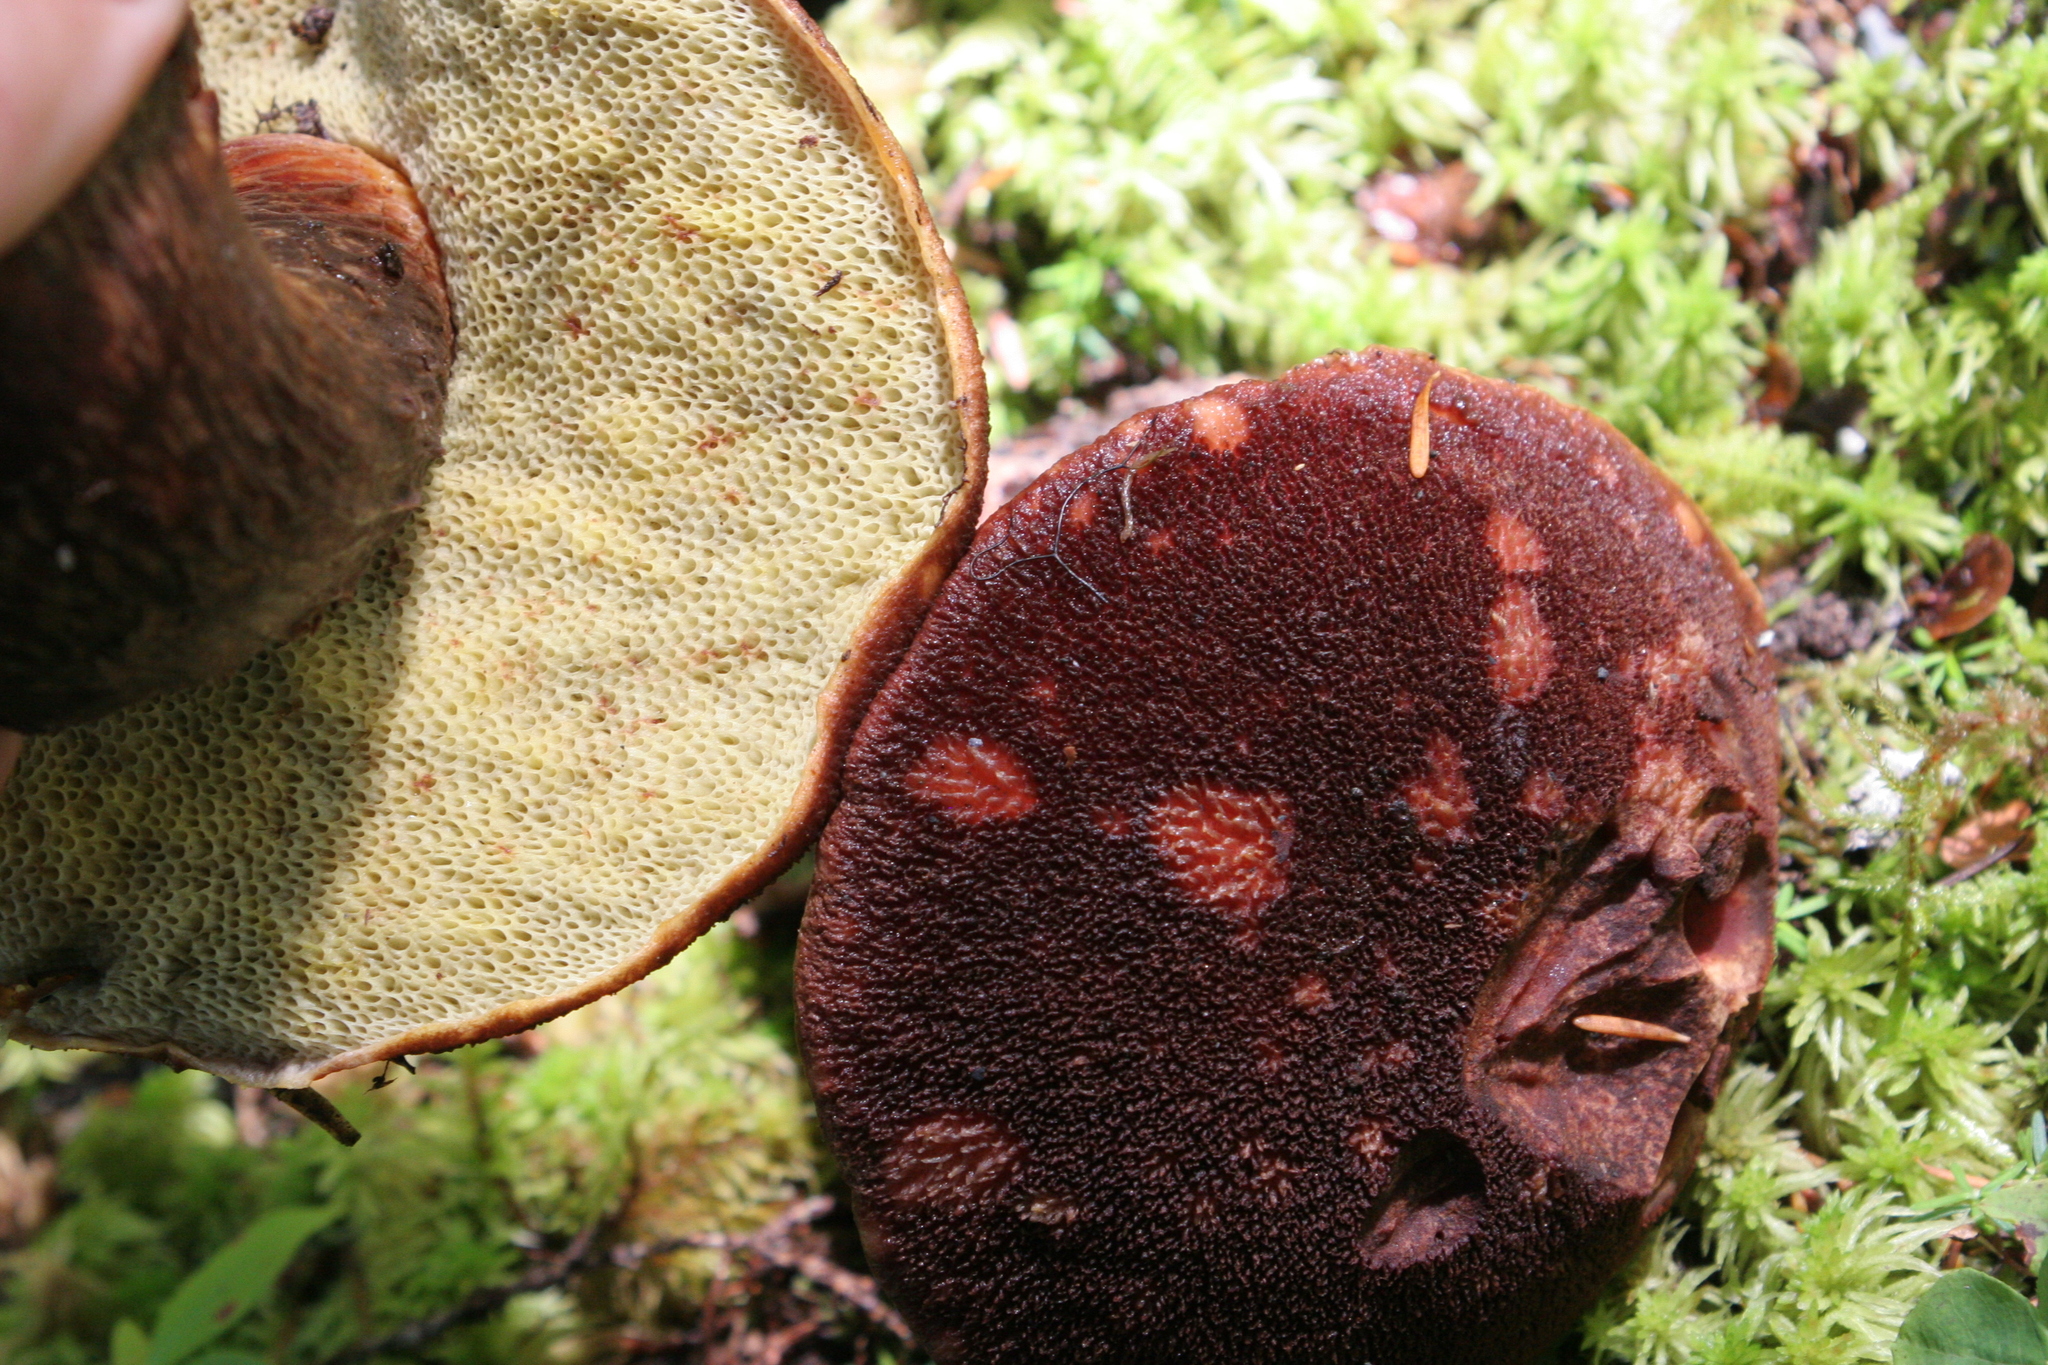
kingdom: Fungi
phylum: Basidiomycota
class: Agaricomycetes
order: Boletales
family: Boletaceae
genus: Aureoboletus
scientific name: Aureoboletus mirabilis
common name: Admirable bolete
